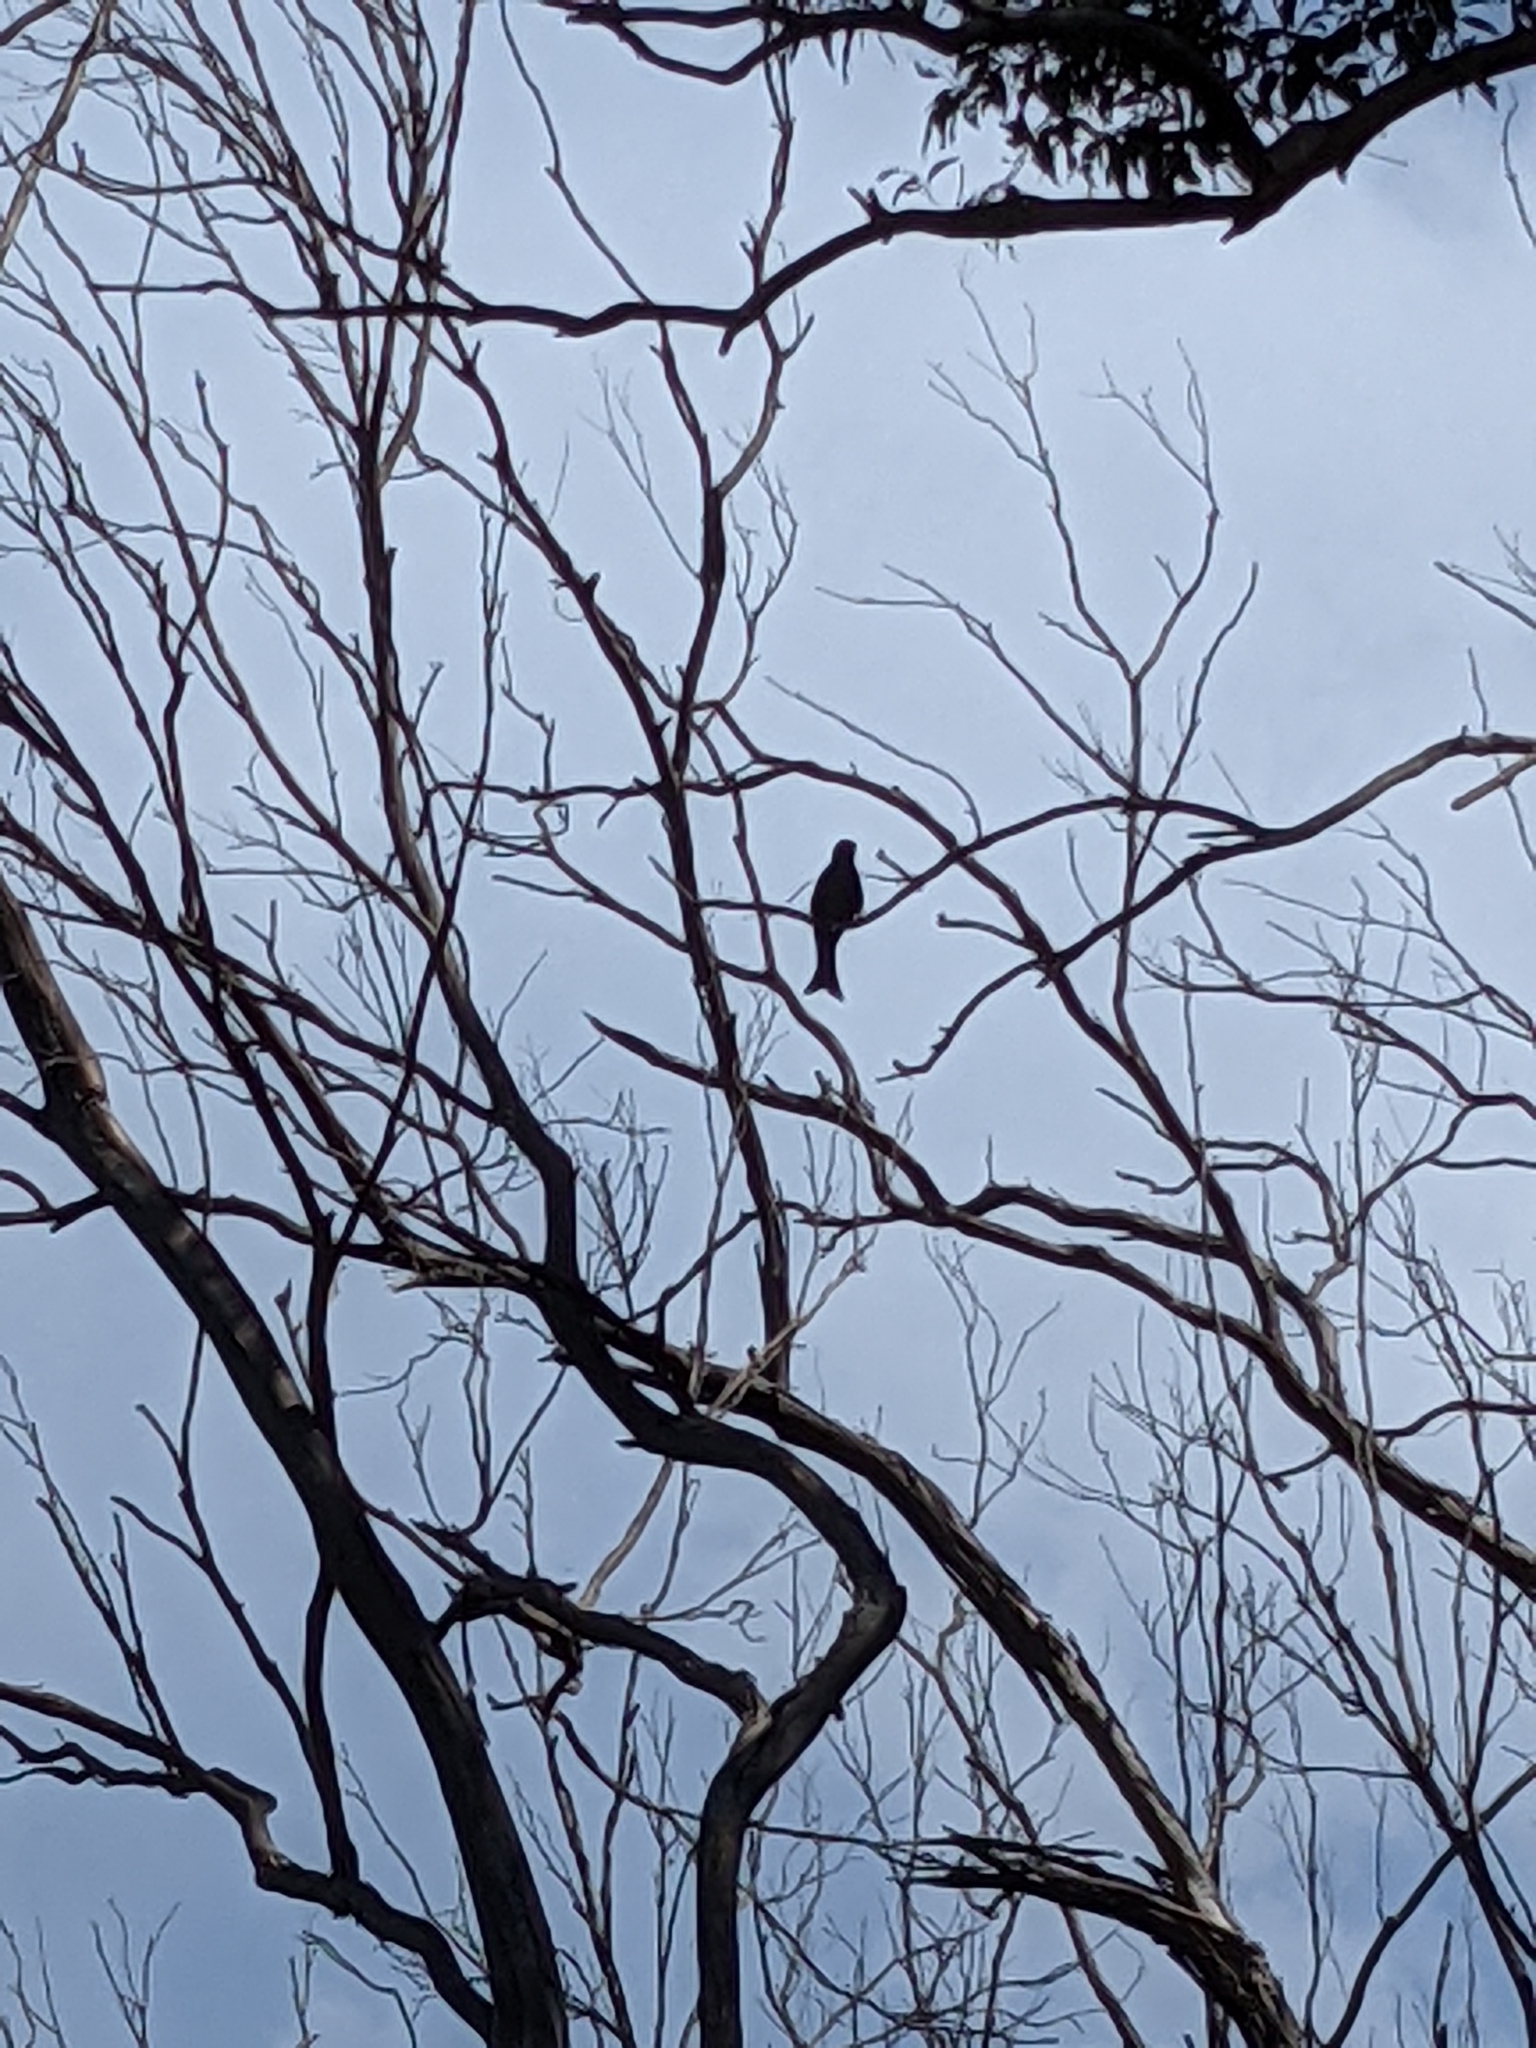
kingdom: Animalia
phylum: Chordata
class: Aves
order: Passeriformes
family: Dicruridae
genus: Dicrurus
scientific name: Dicrurus bracteatus
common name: Spangled drongo
